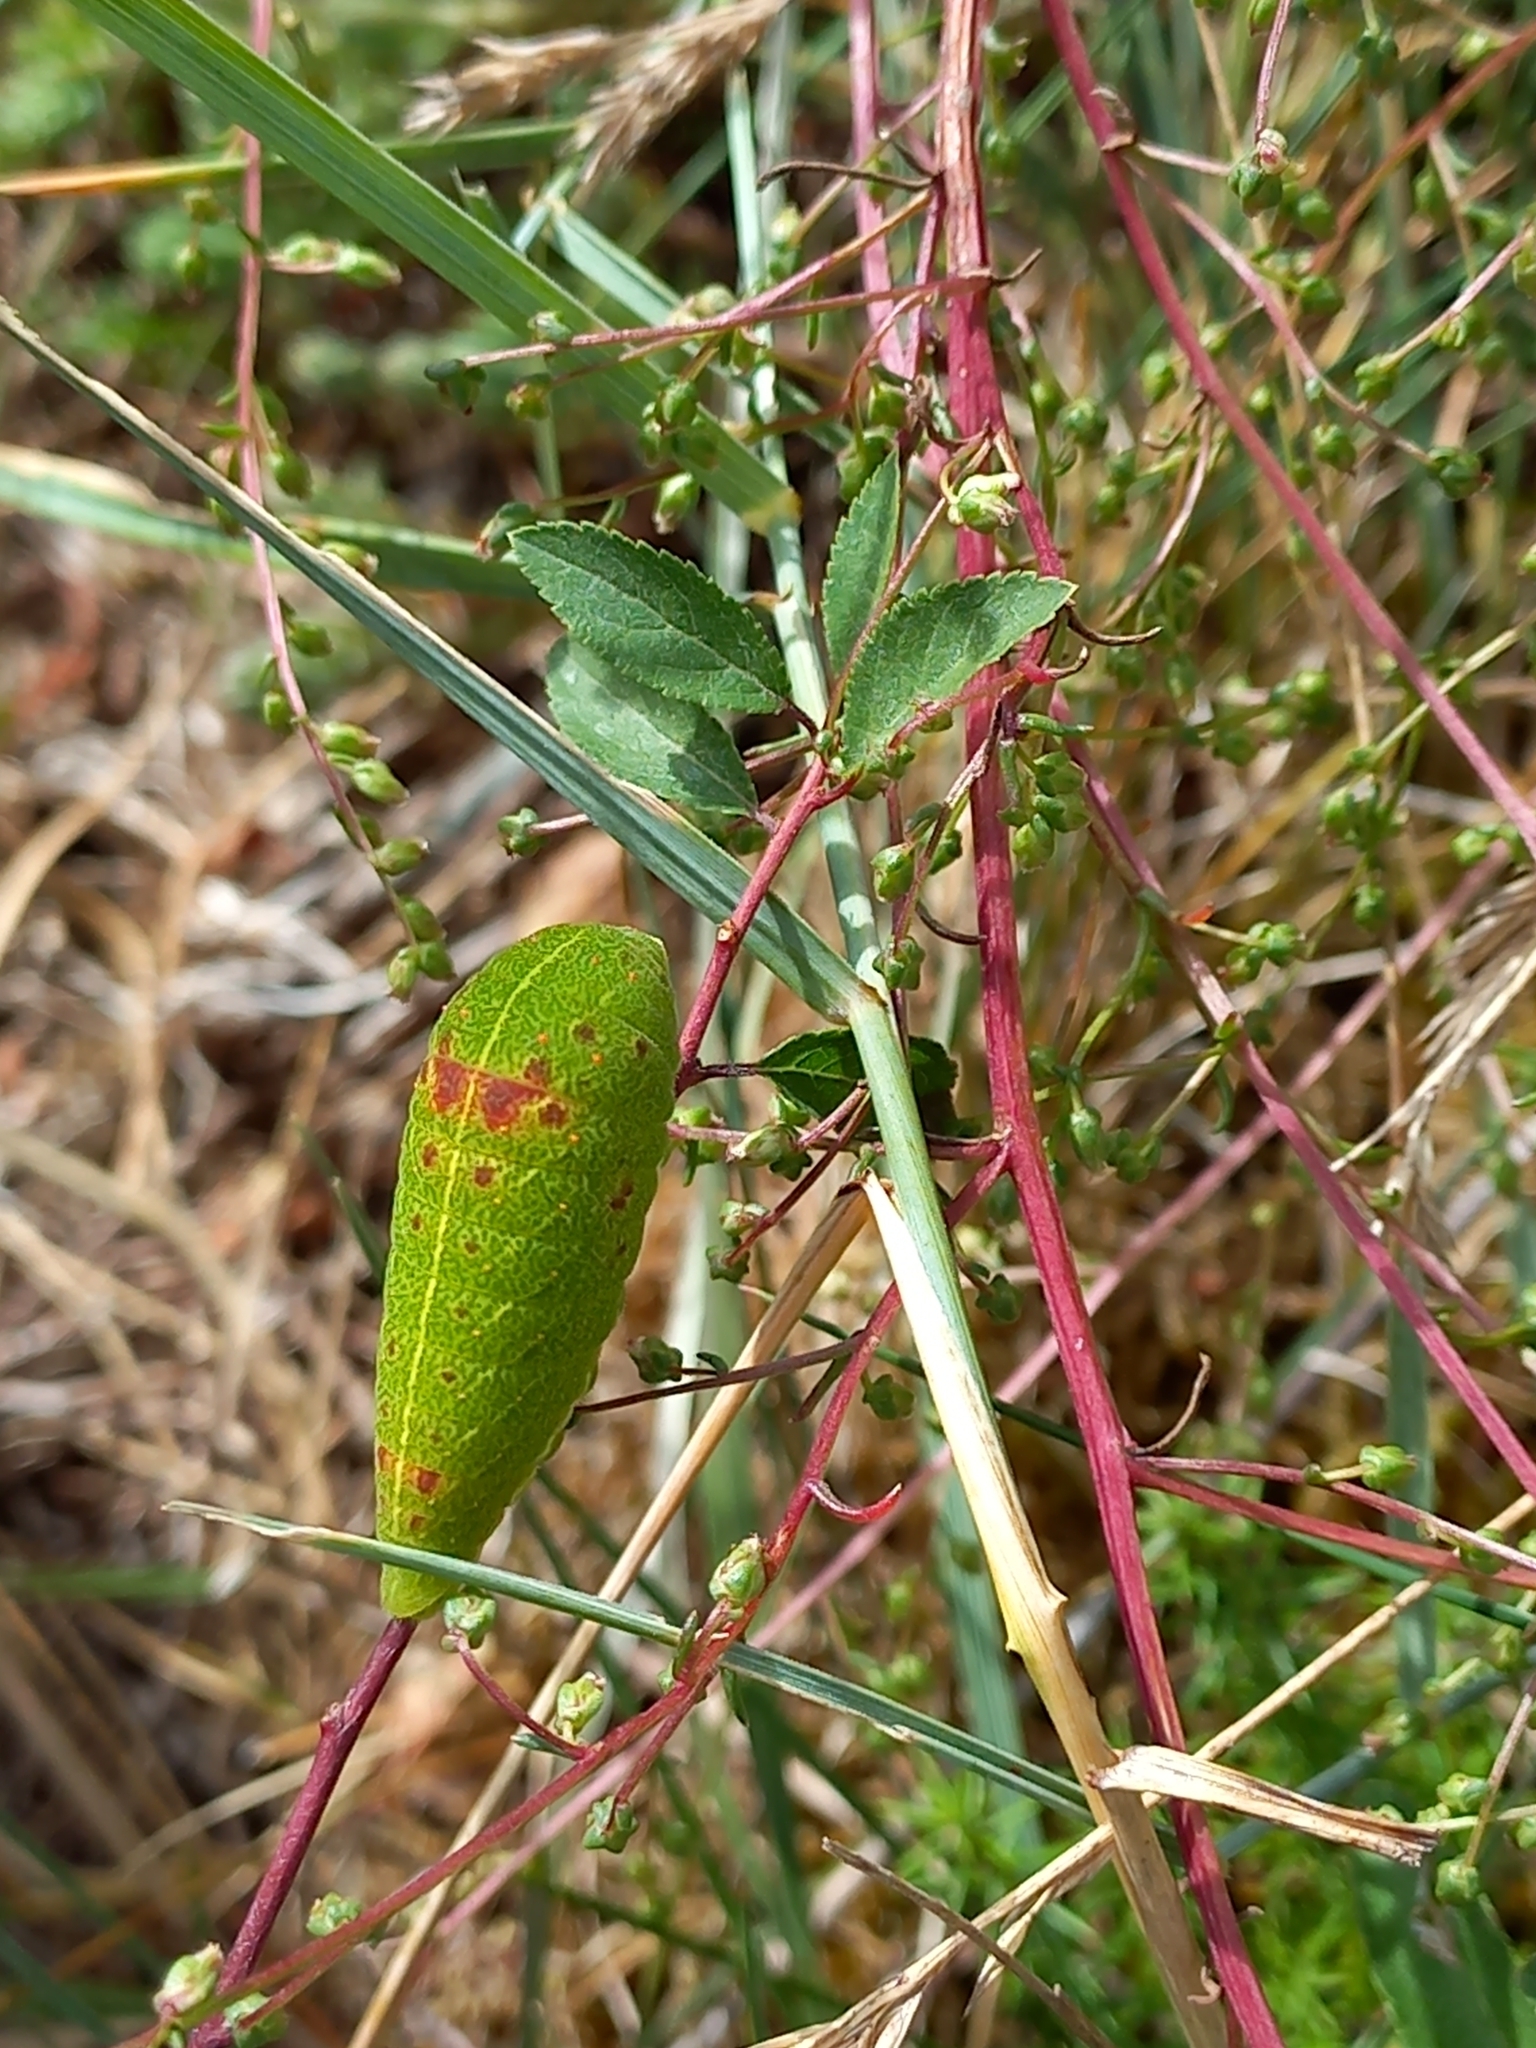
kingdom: Animalia
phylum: Arthropoda
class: Insecta
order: Lepidoptera
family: Papilionidae
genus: Iphiclides
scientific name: Iphiclides podalirius
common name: Scarce swallowtail
